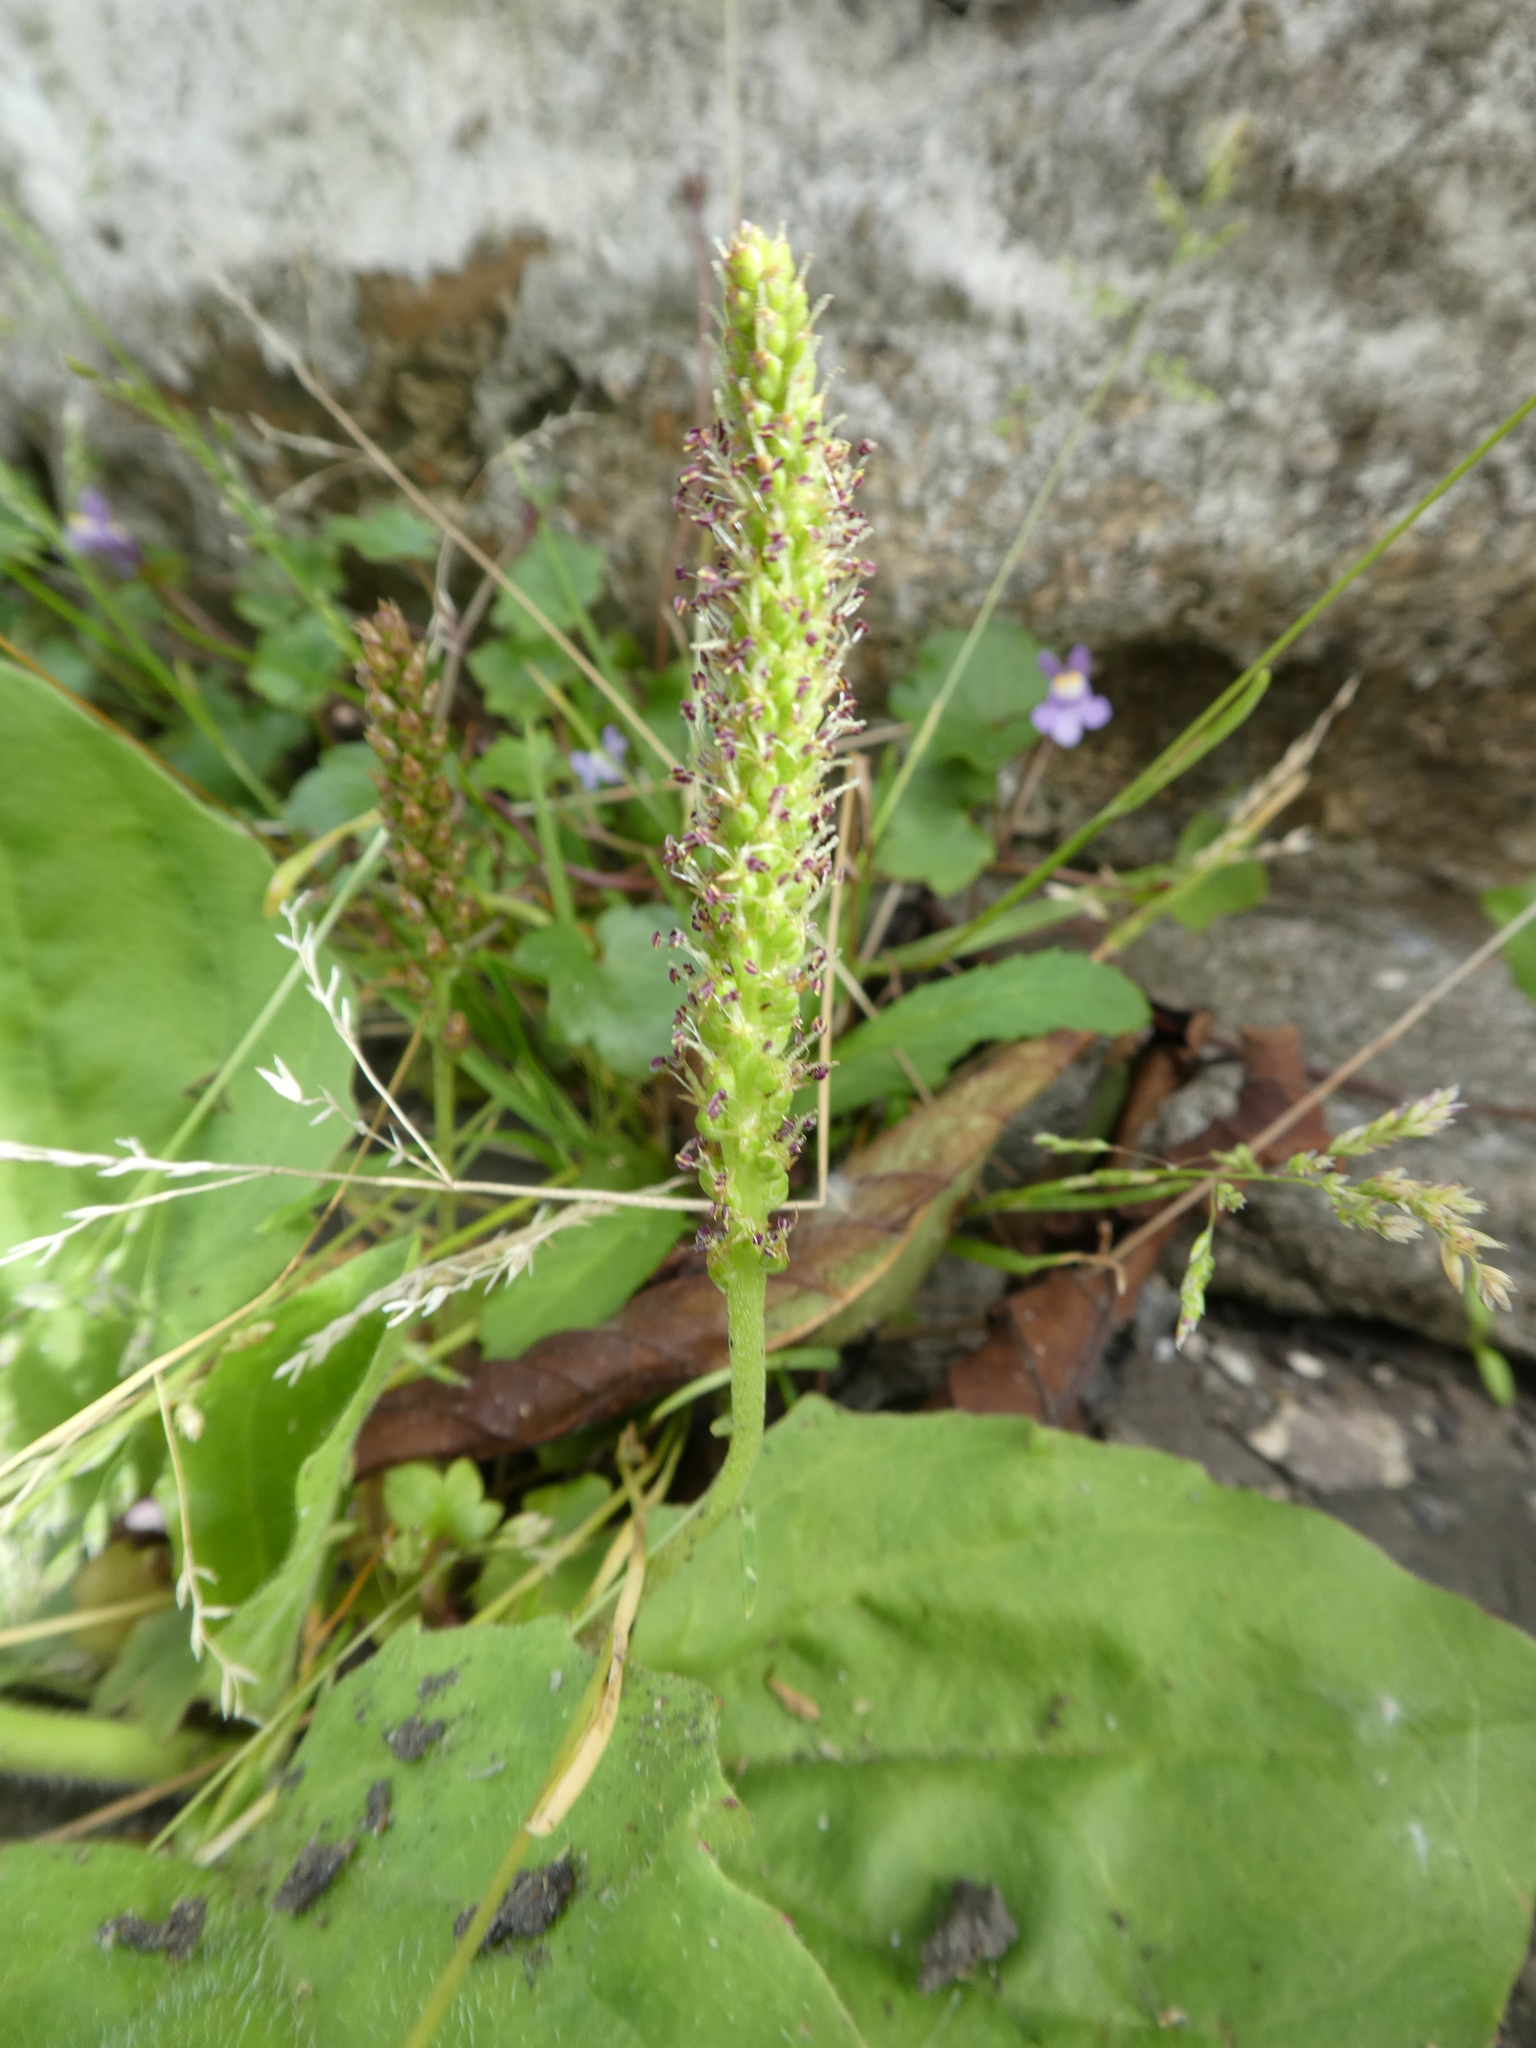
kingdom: Plantae
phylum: Tracheophyta
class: Magnoliopsida
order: Lamiales
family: Plantaginaceae
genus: Plantago
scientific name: Plantago major
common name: Common plantain
